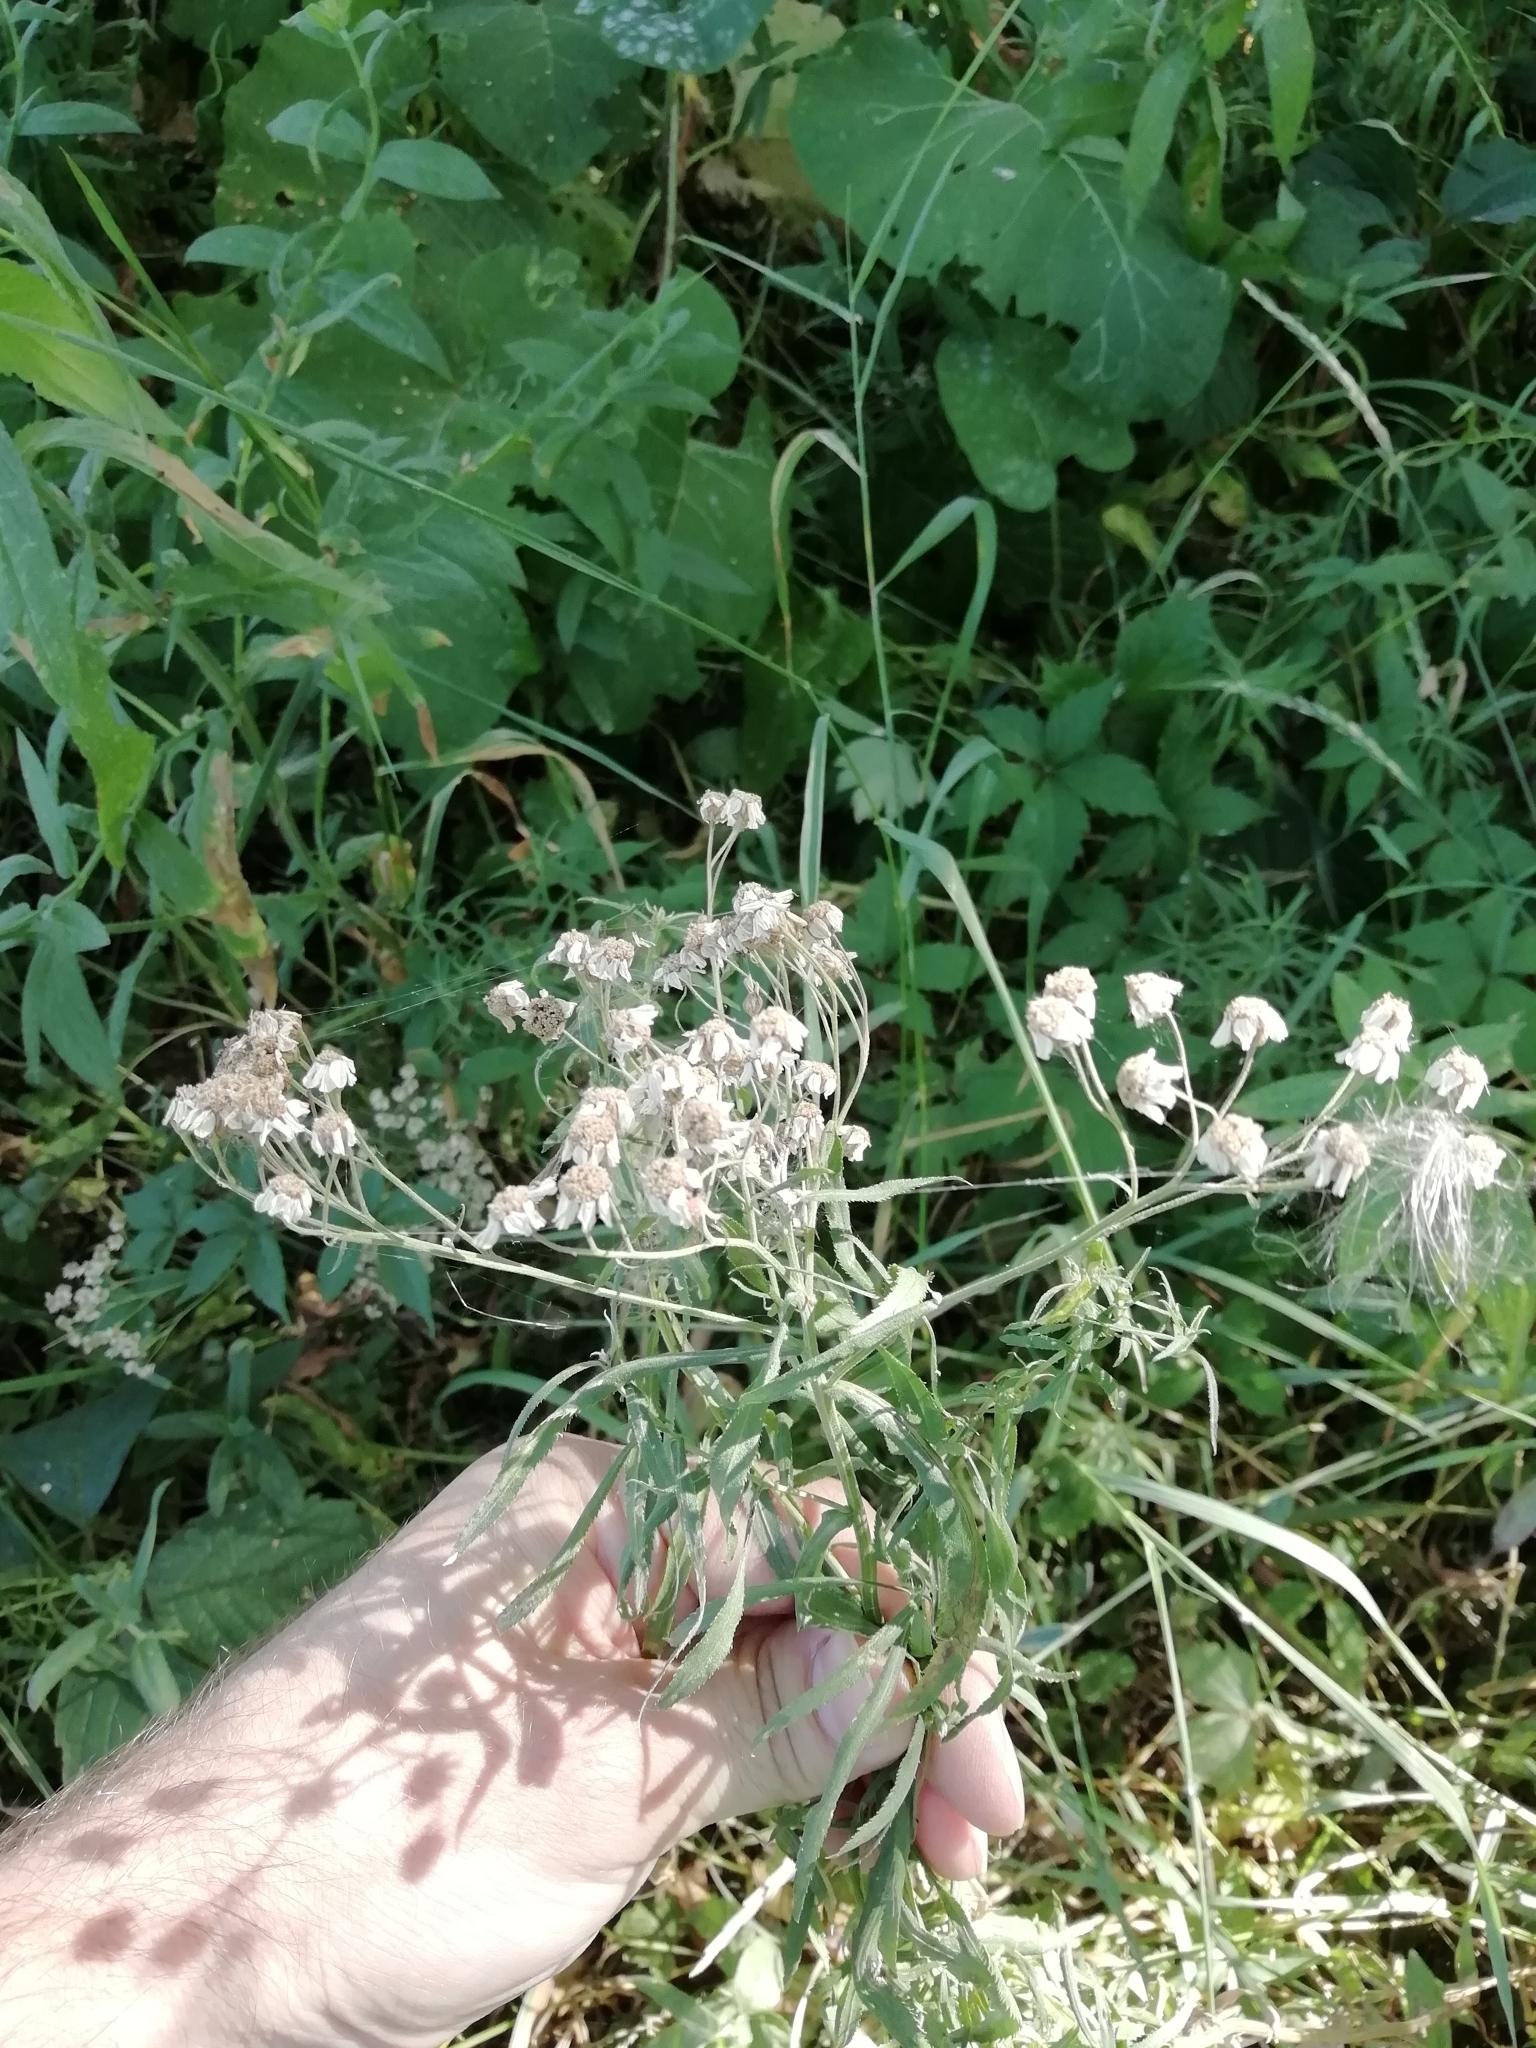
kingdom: Plantae
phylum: Tracheophyta
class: Magnoliopsida
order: Asterales
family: Asteraceae
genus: Achillea
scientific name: Achillea salicifolia
